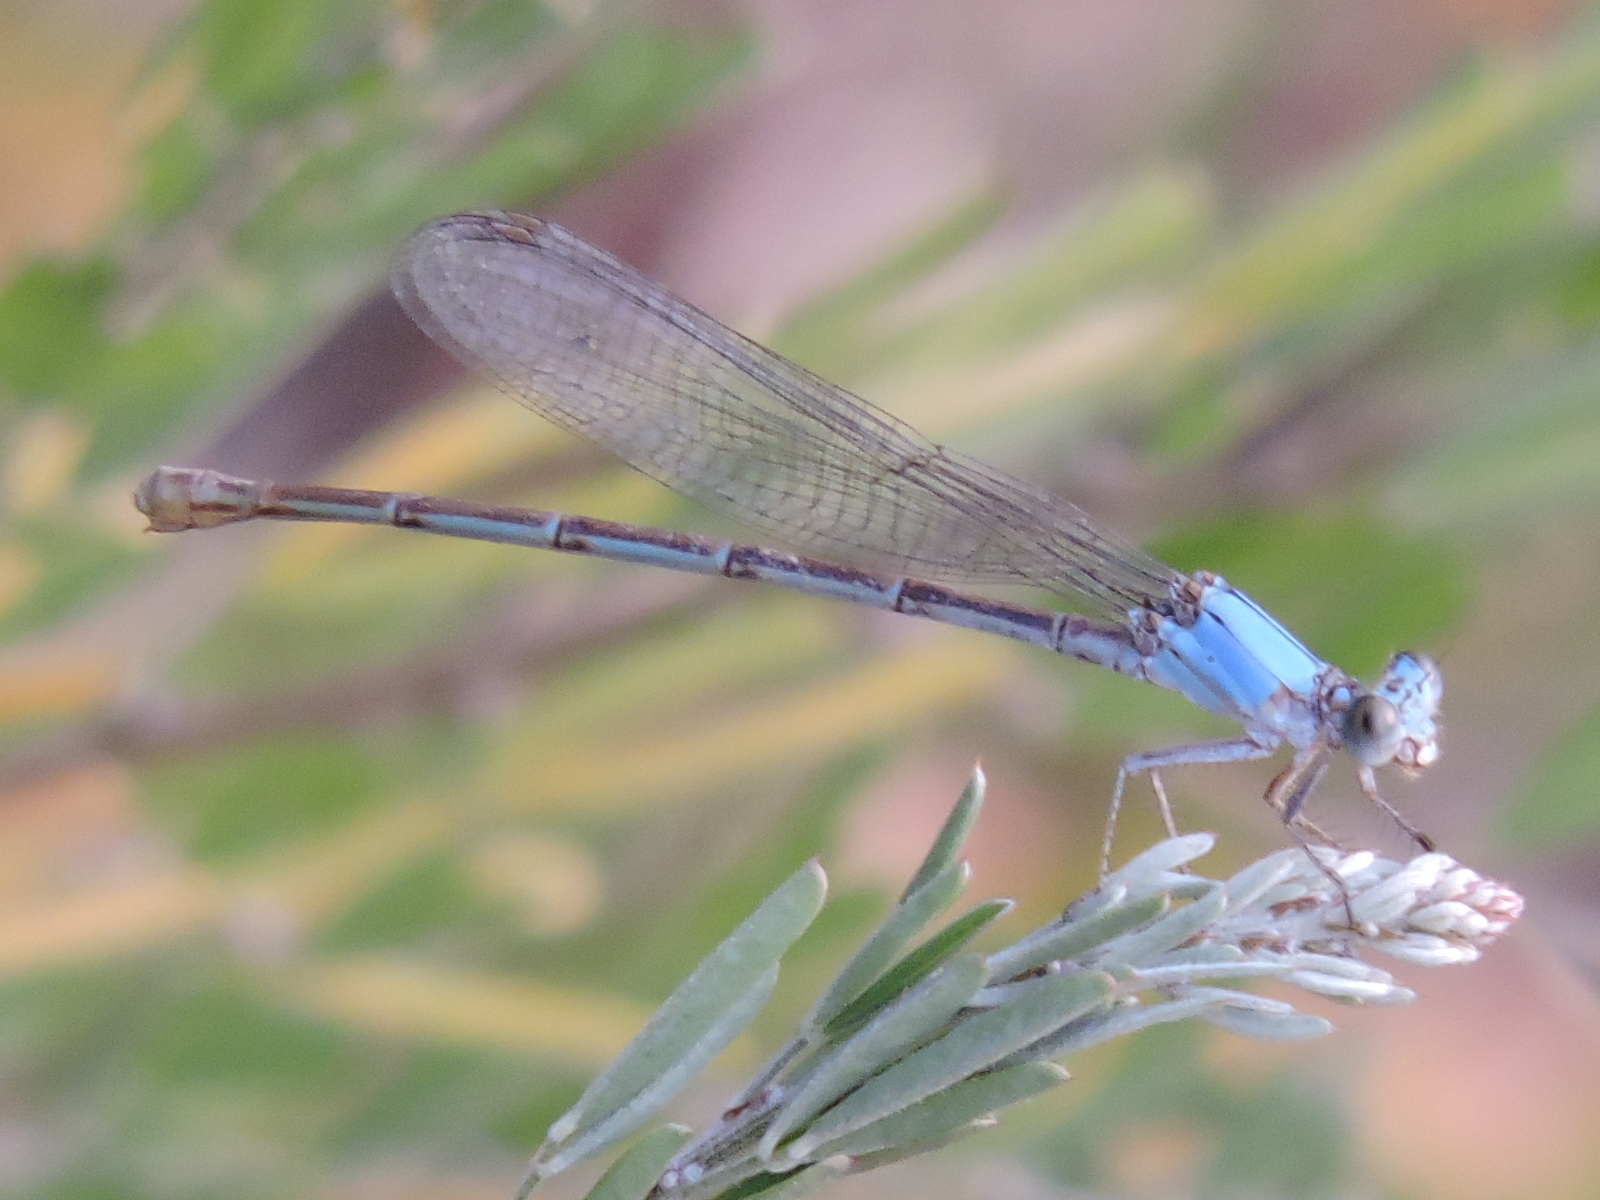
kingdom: Animalia
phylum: Arthropoda
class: Insecta
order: Odonata
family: Coenagrionidae
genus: Argia
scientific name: Argia moesta
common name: Powdered dancer
